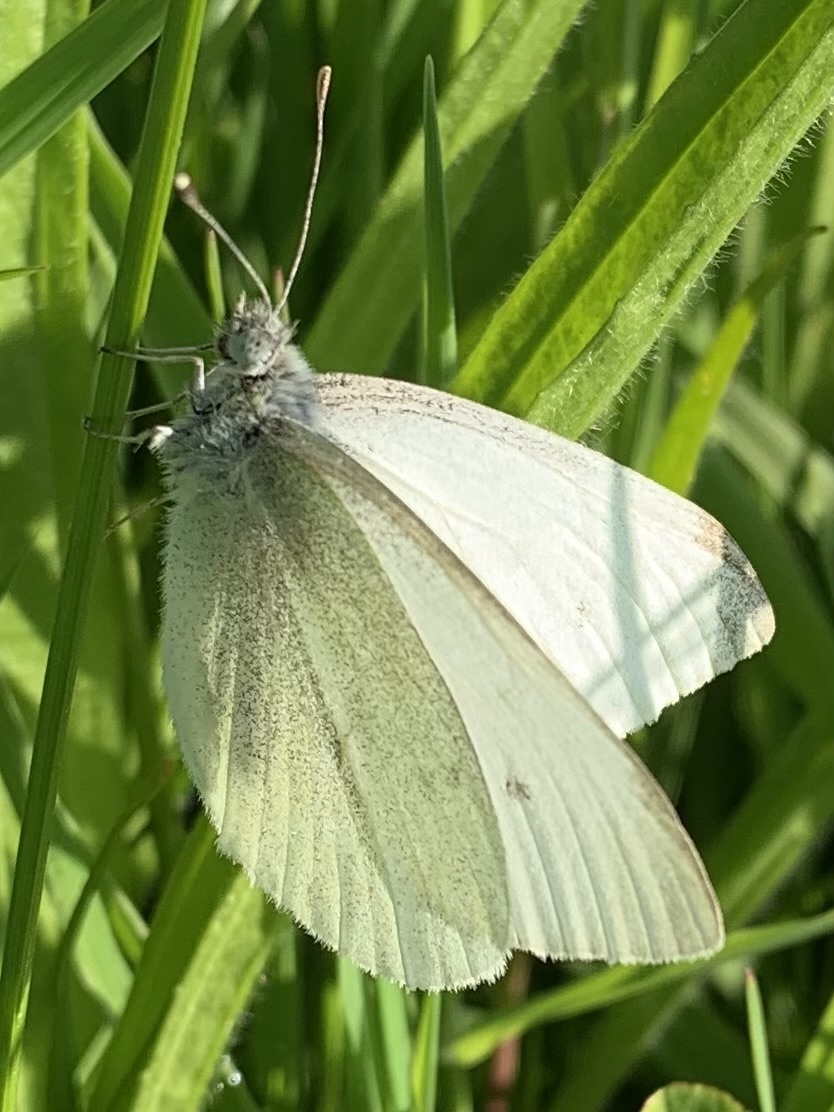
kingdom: Animalia
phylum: Arthropoda
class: Insecta
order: Lepidoptera
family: Pieridae
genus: Pieris
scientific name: Pieris rapae
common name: Small white
